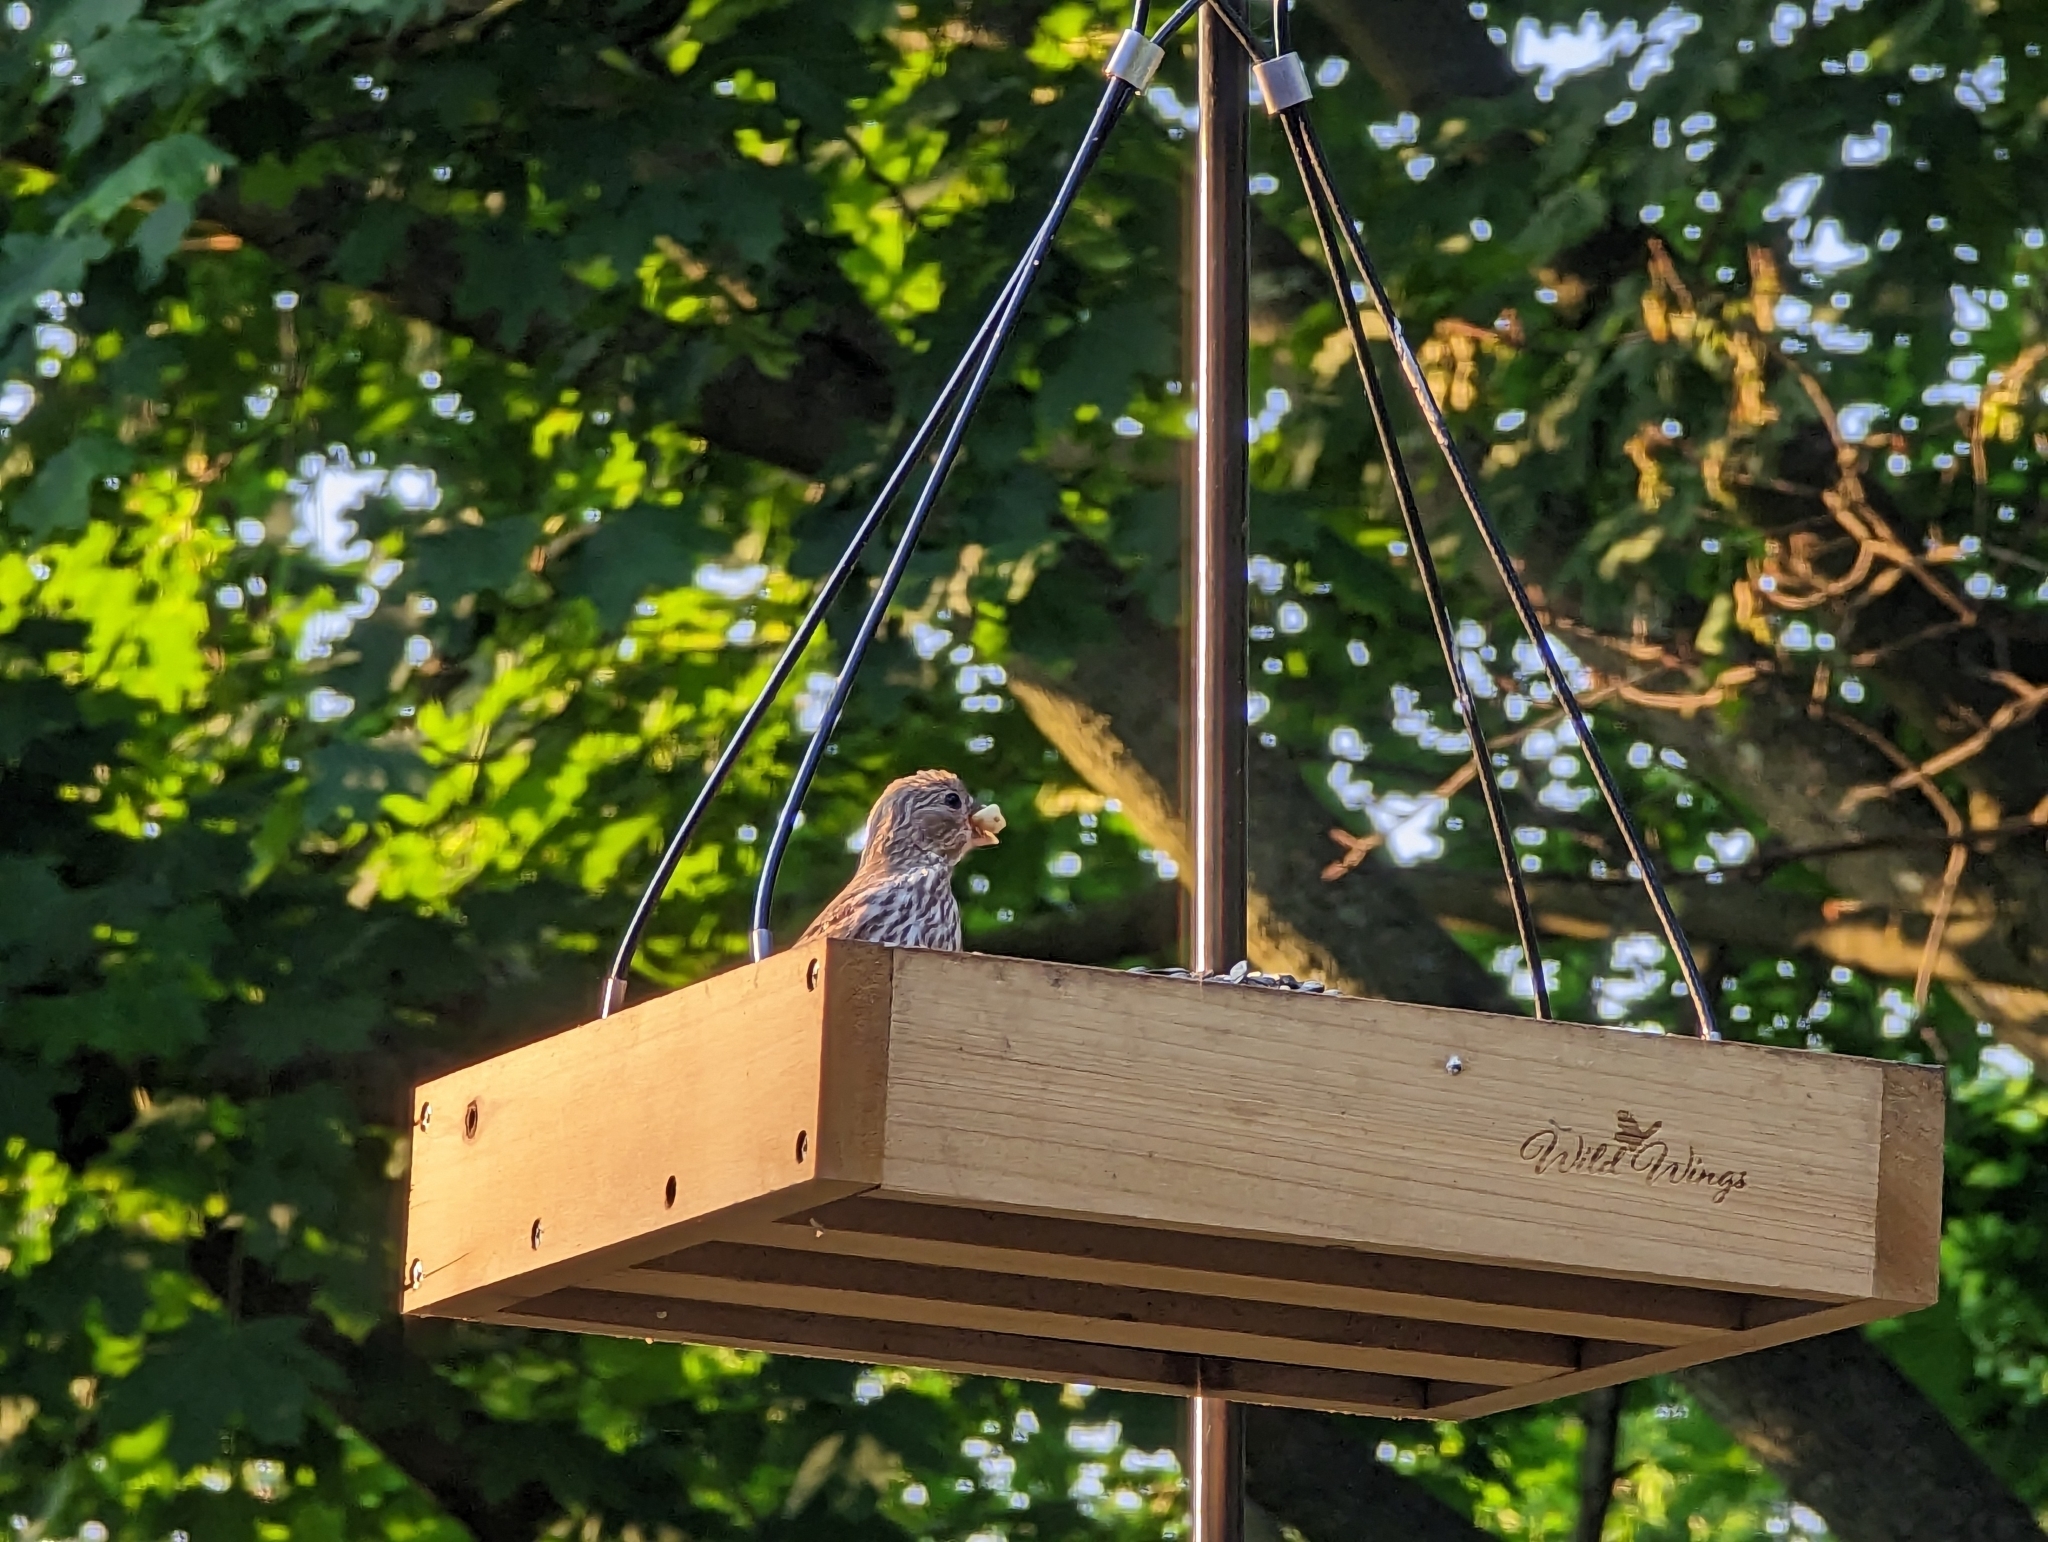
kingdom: Animalia
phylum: Chordata
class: Aves
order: Passeriformes
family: Fringillidae
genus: Haemorhous
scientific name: Haemorhous mexicanus
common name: House finch
